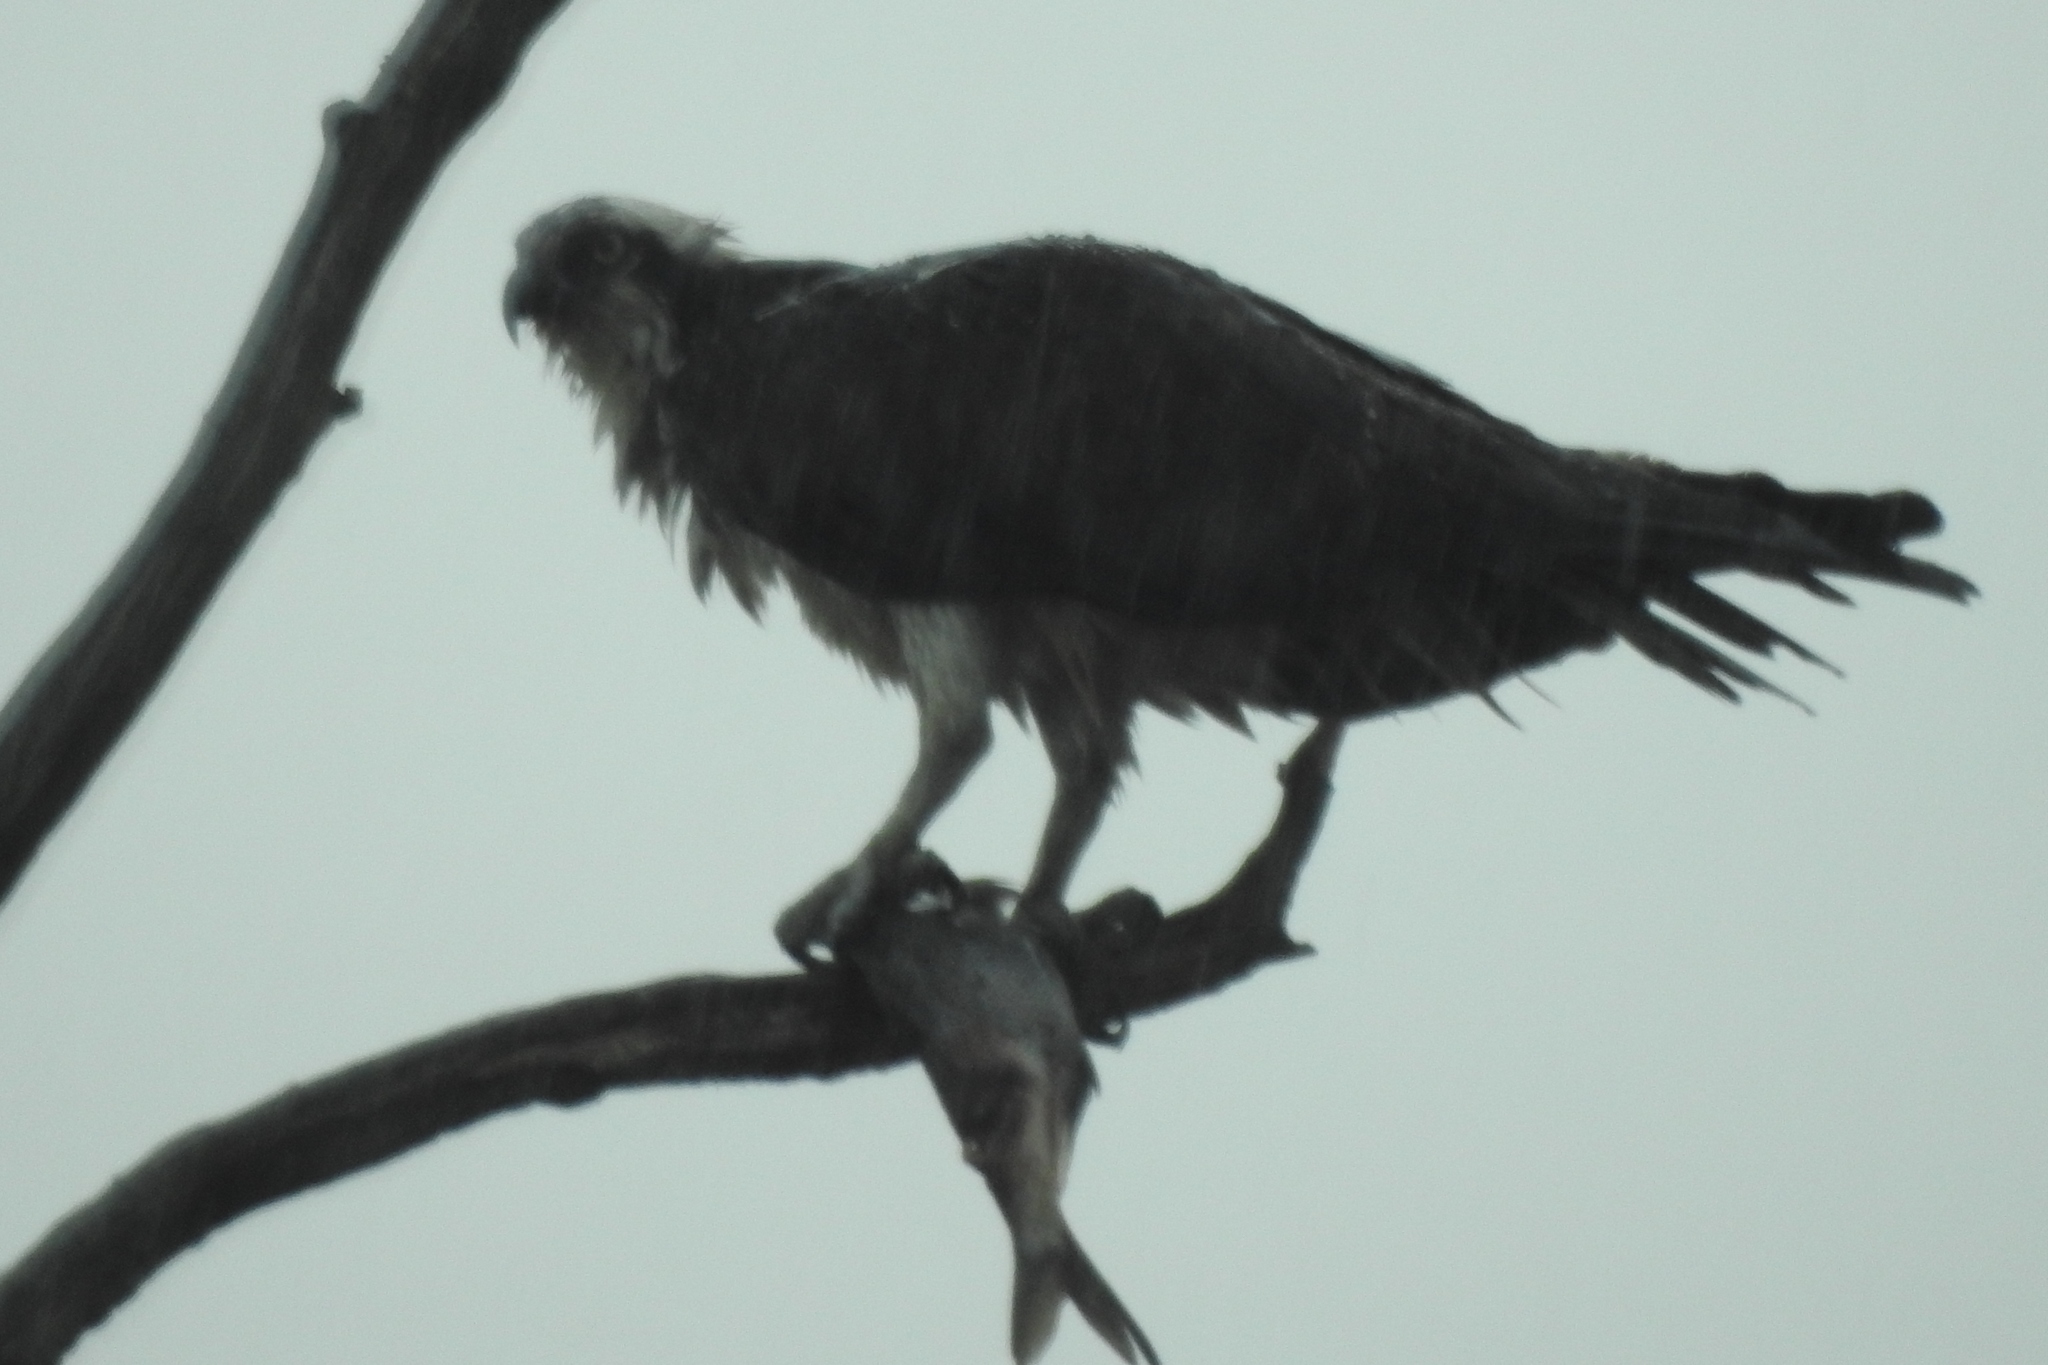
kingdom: Animalia
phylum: Chordata
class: Aves
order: Accipitriformes
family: Pandionidae
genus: Pandion
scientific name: Pandion haliaetus
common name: Osprey
